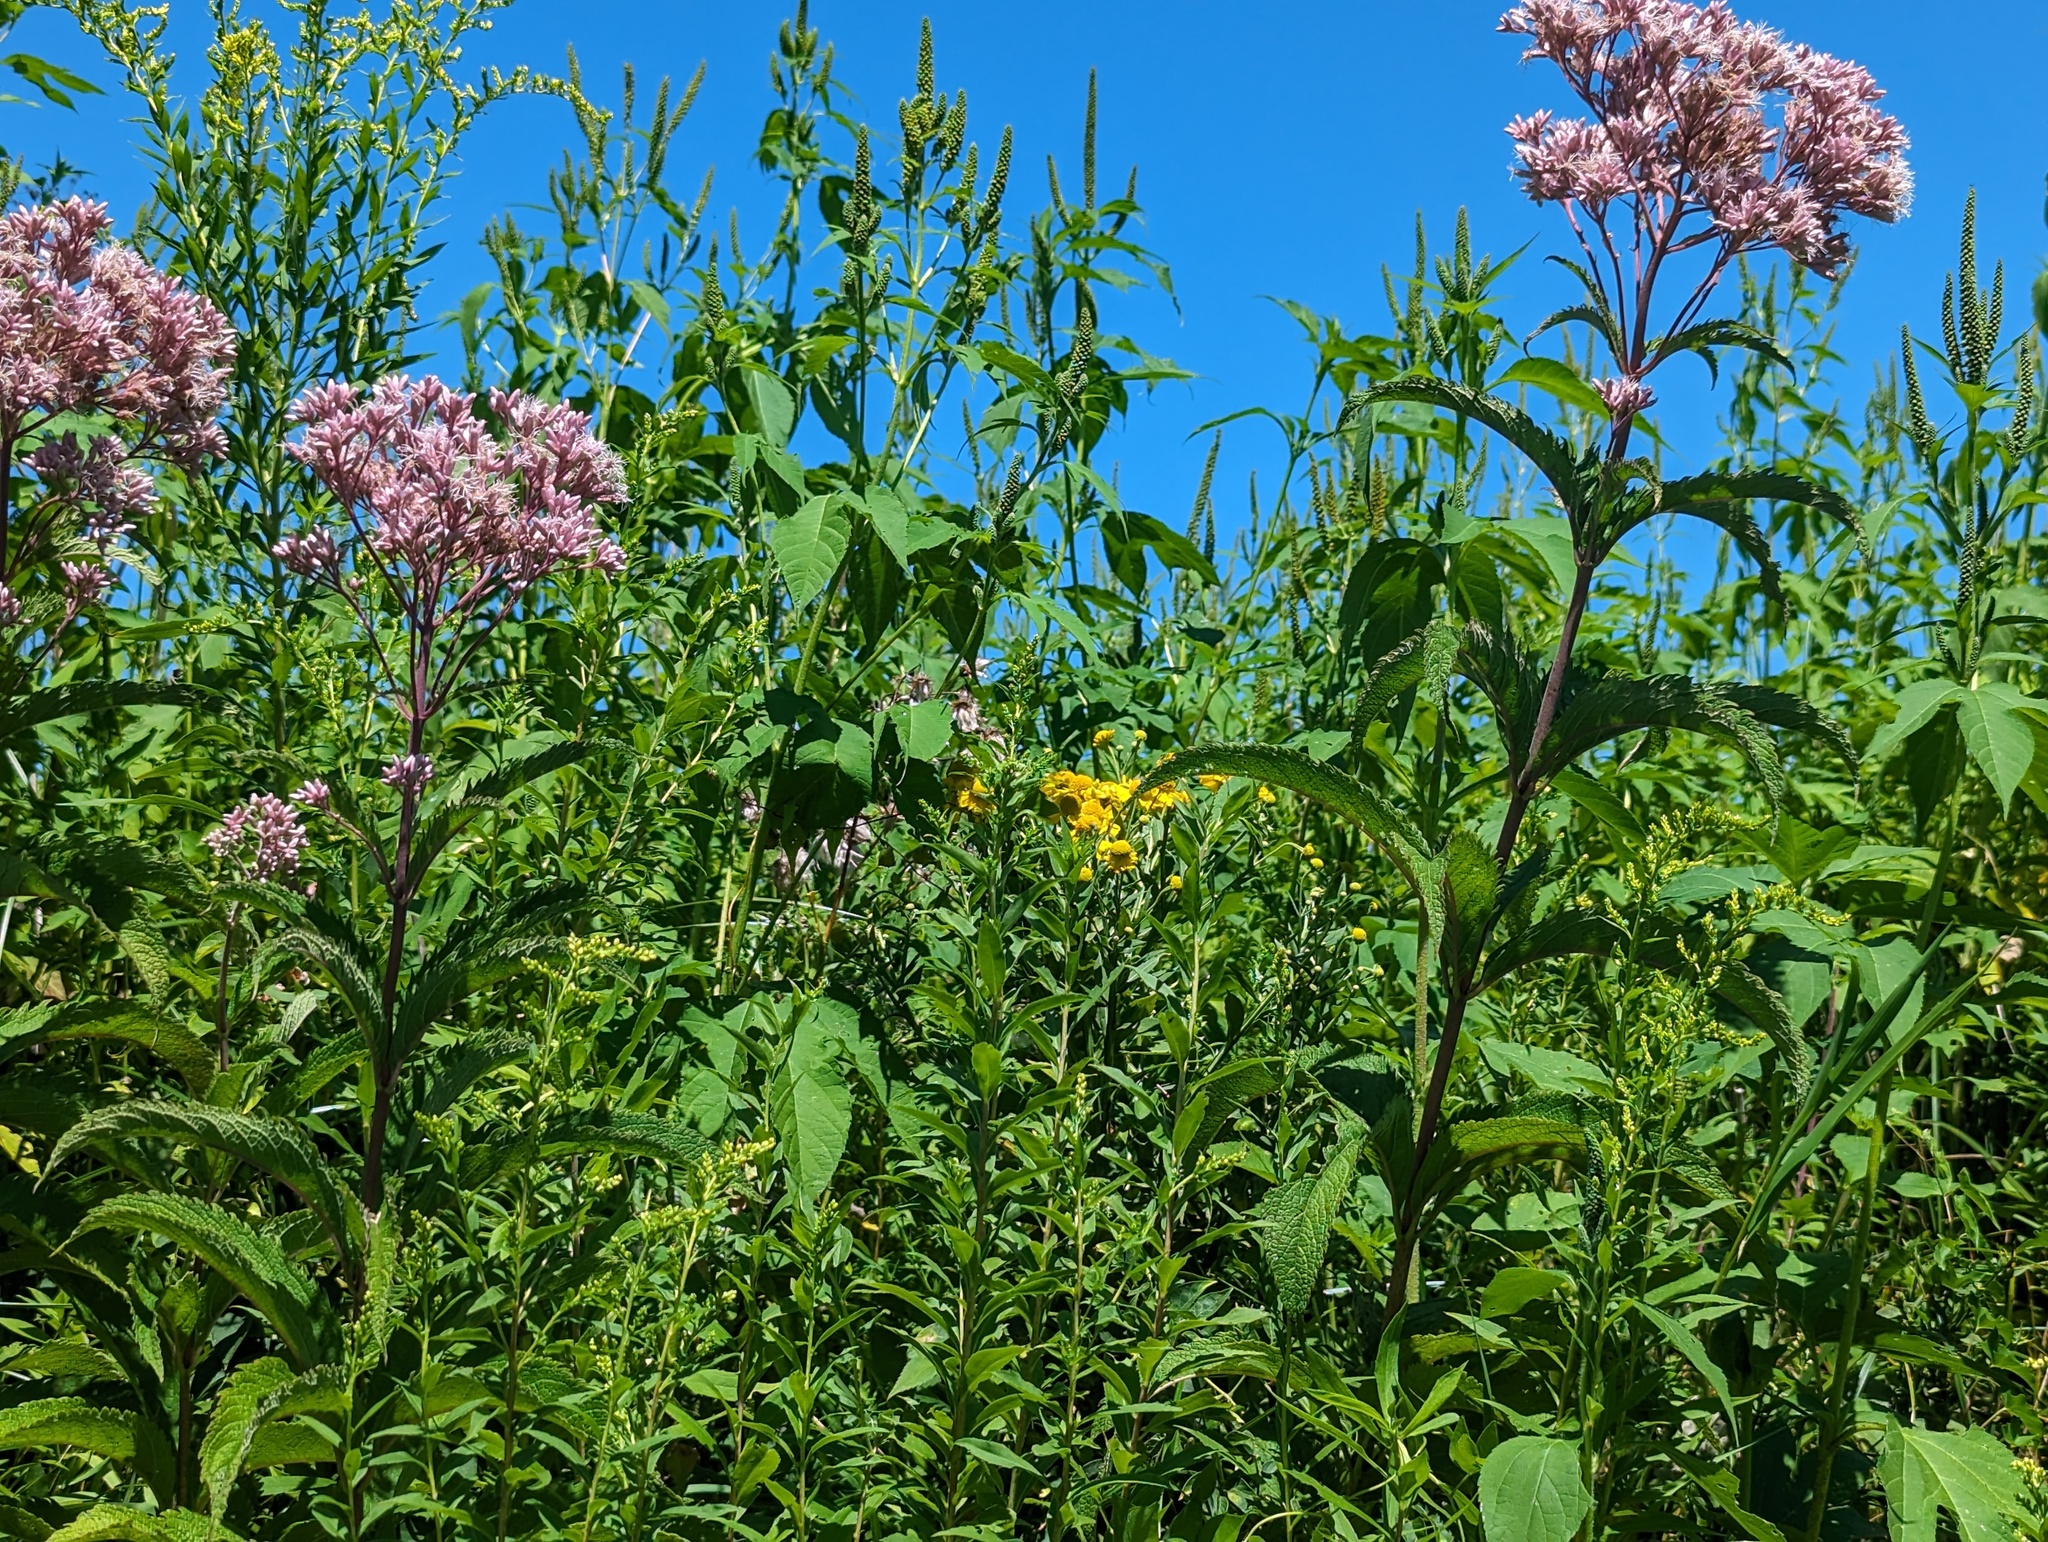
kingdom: Plantae
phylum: Tracheophyta
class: Magnoliopsida
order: Asterales
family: Asteraceae
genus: Helenium
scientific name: Helenium autumnale
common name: Sneezeweed
